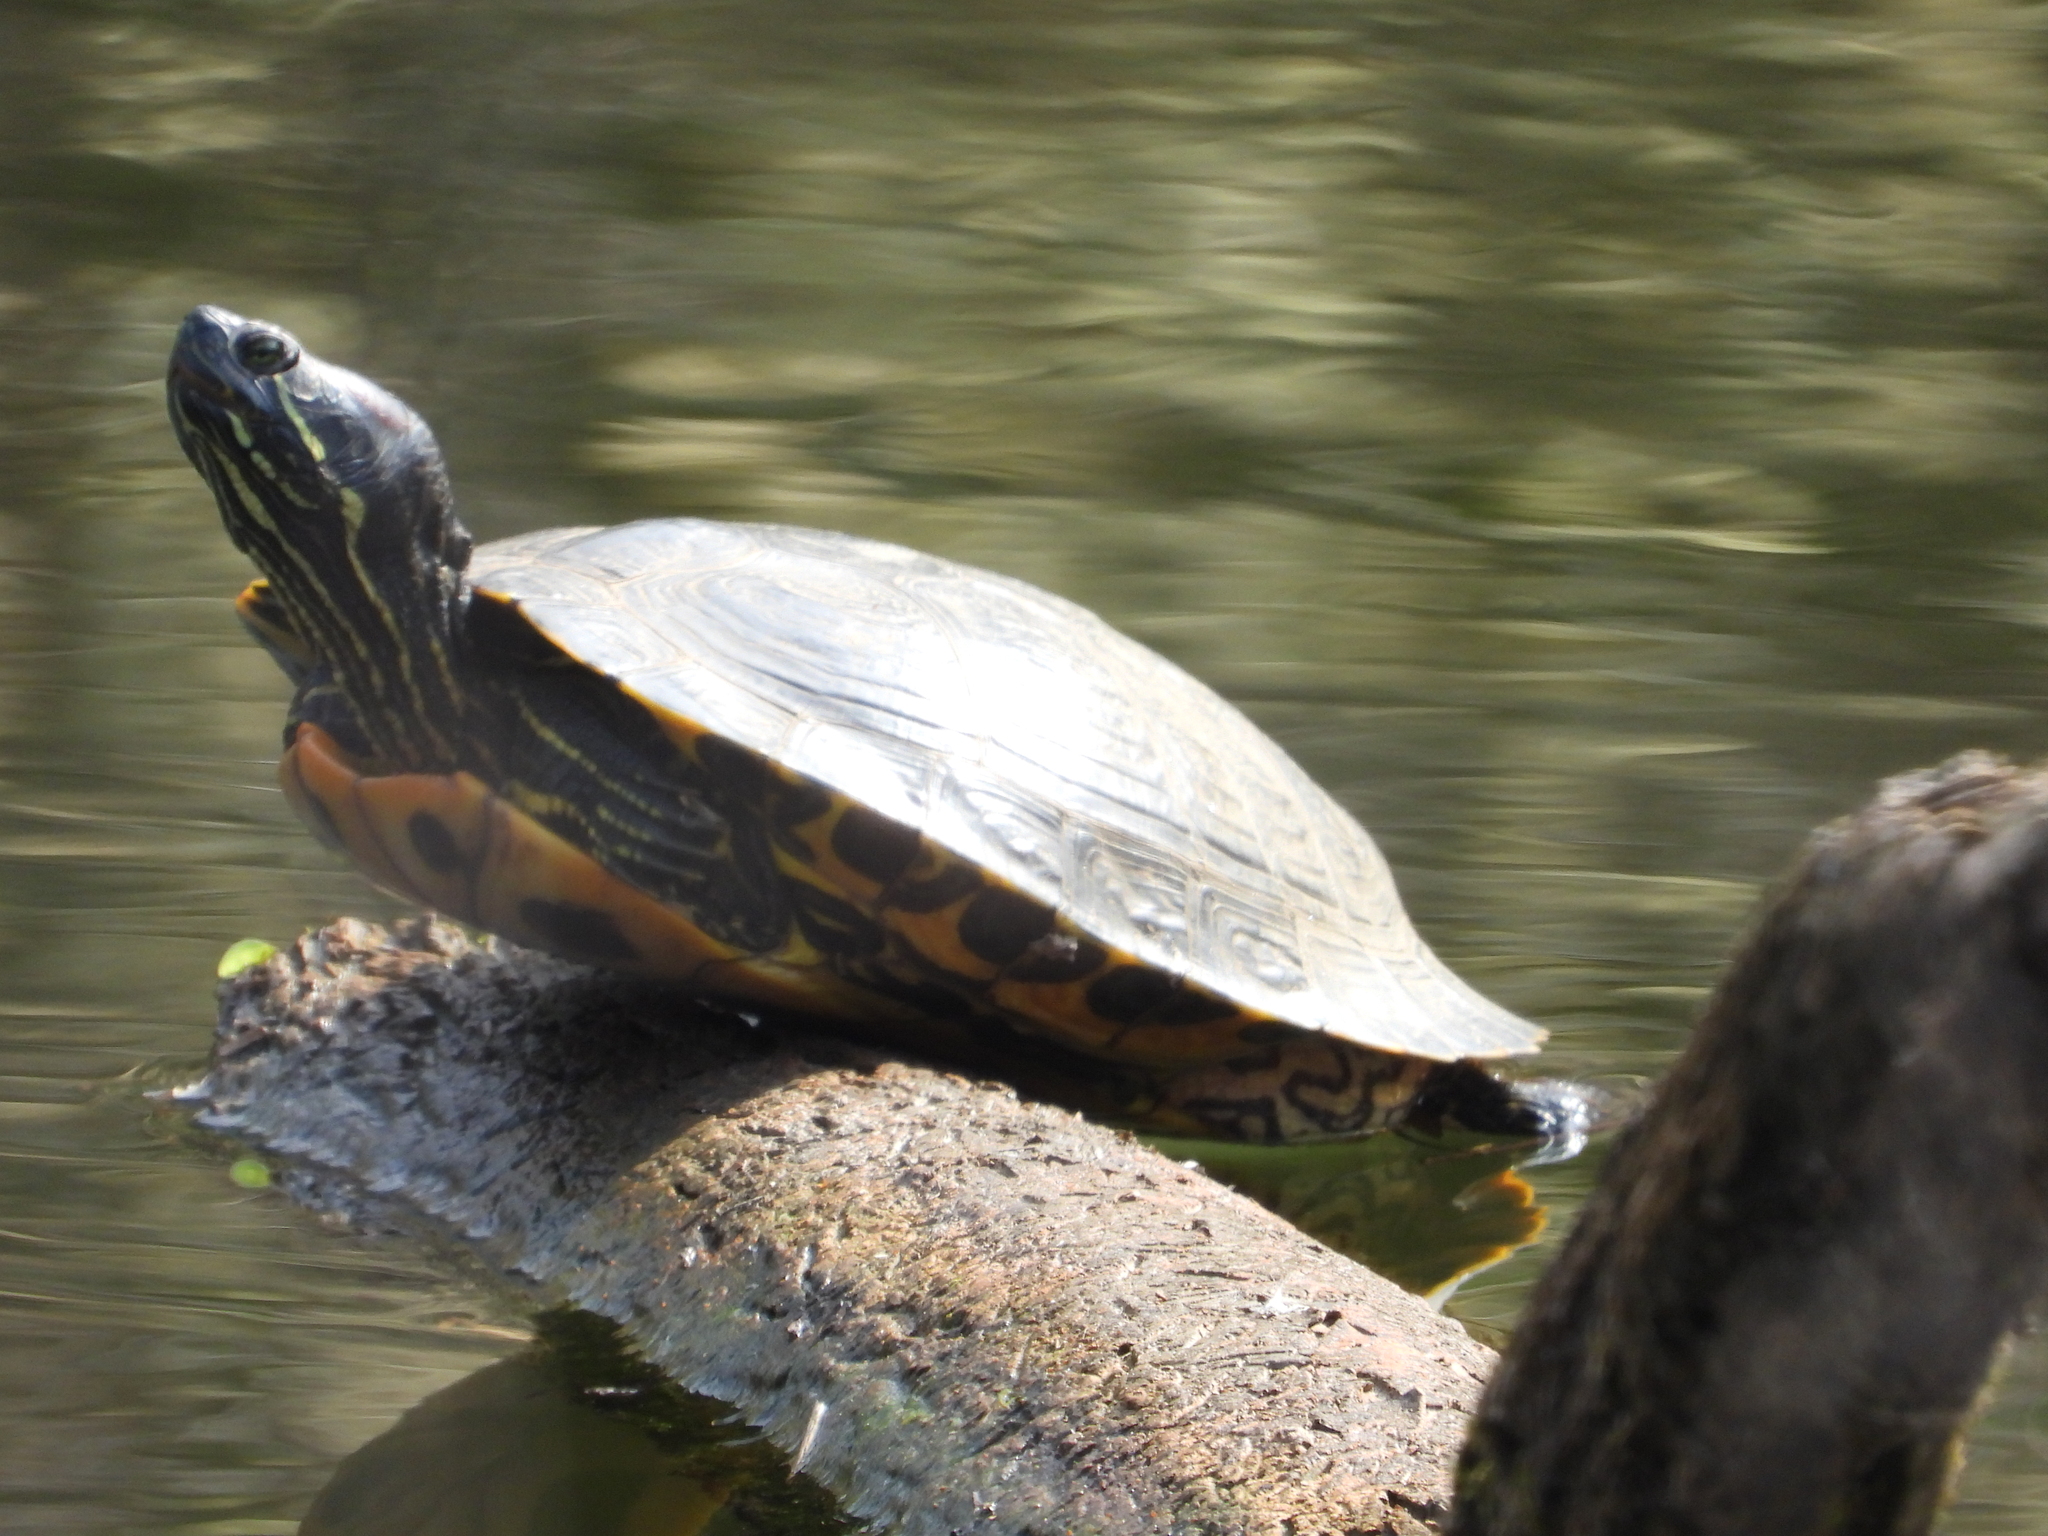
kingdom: Animalia
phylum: Chordata
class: Testudines
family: Emydidae
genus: Trachemys
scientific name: Trachemys scripta
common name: Slider
